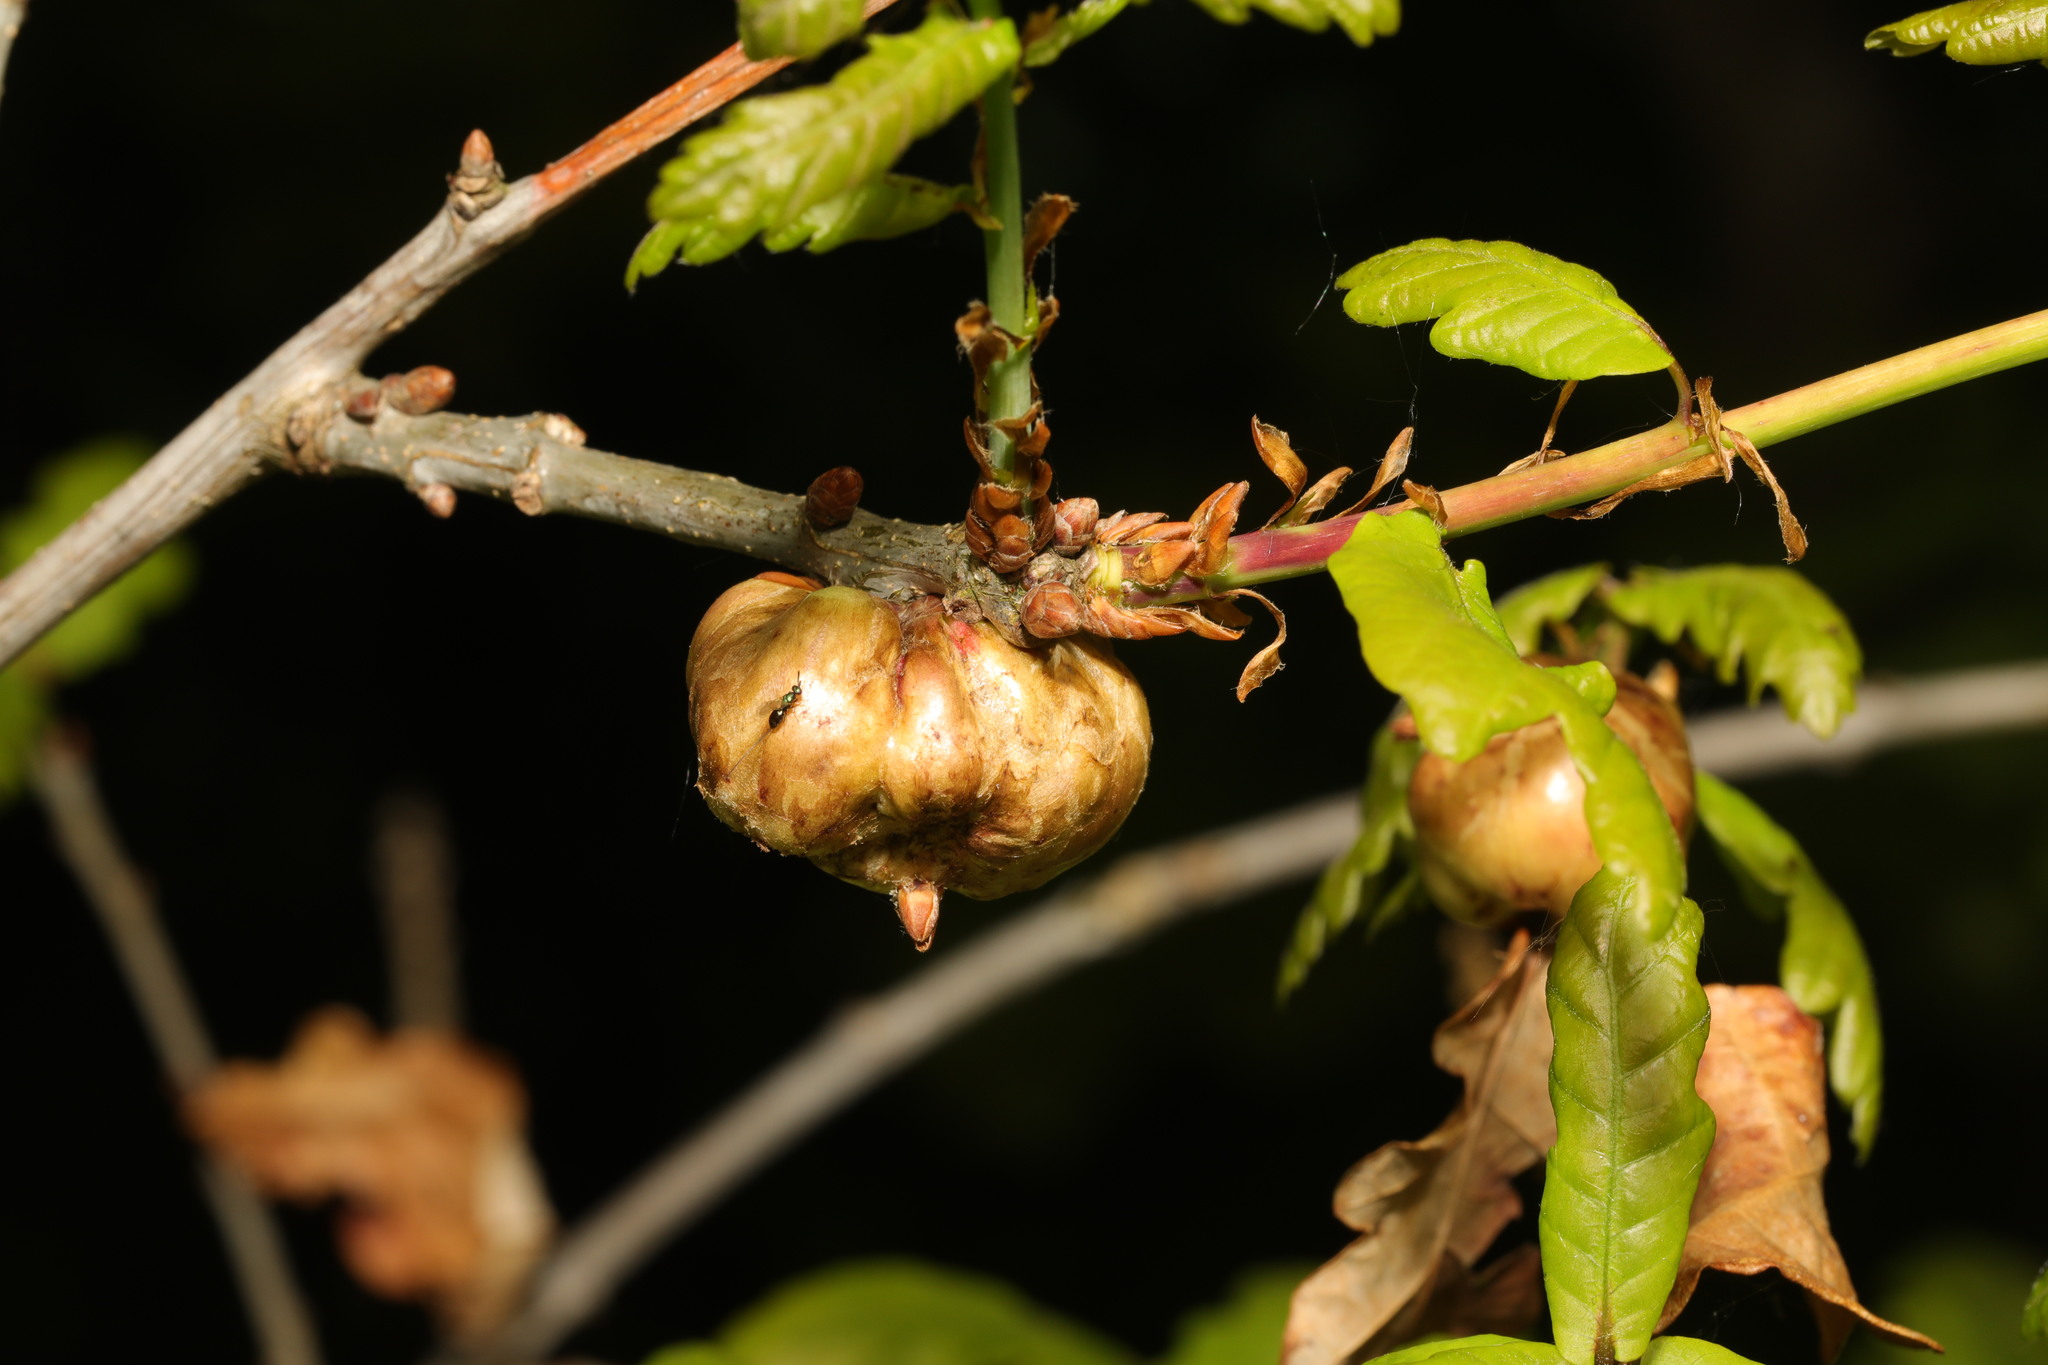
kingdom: Animalia
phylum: Arthropoda
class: Insecta
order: Hymenoptera
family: Cynipidae
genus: Biorhiza
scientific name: Biorhiza pallida
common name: Oak apple
